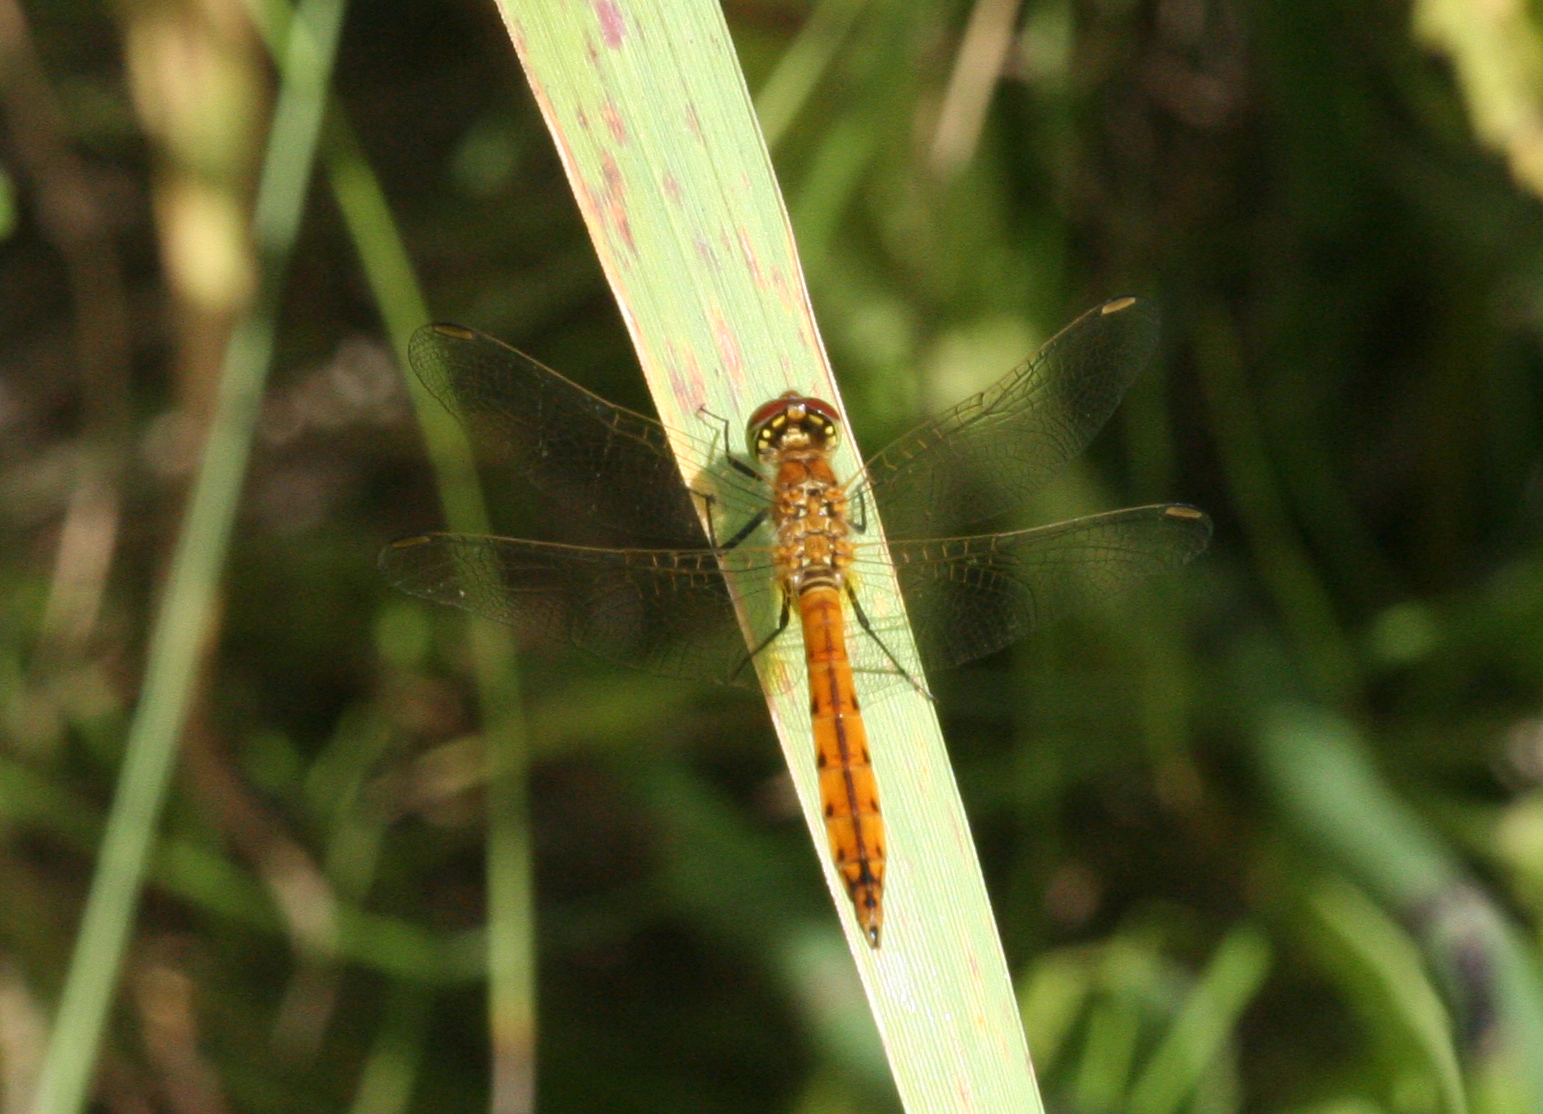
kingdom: Animalia
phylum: Arthropoda
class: Insecta
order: Odonata
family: Libellulidae
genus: Sympetrum
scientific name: Sympetrum depressiusculum
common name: Spotted darter
